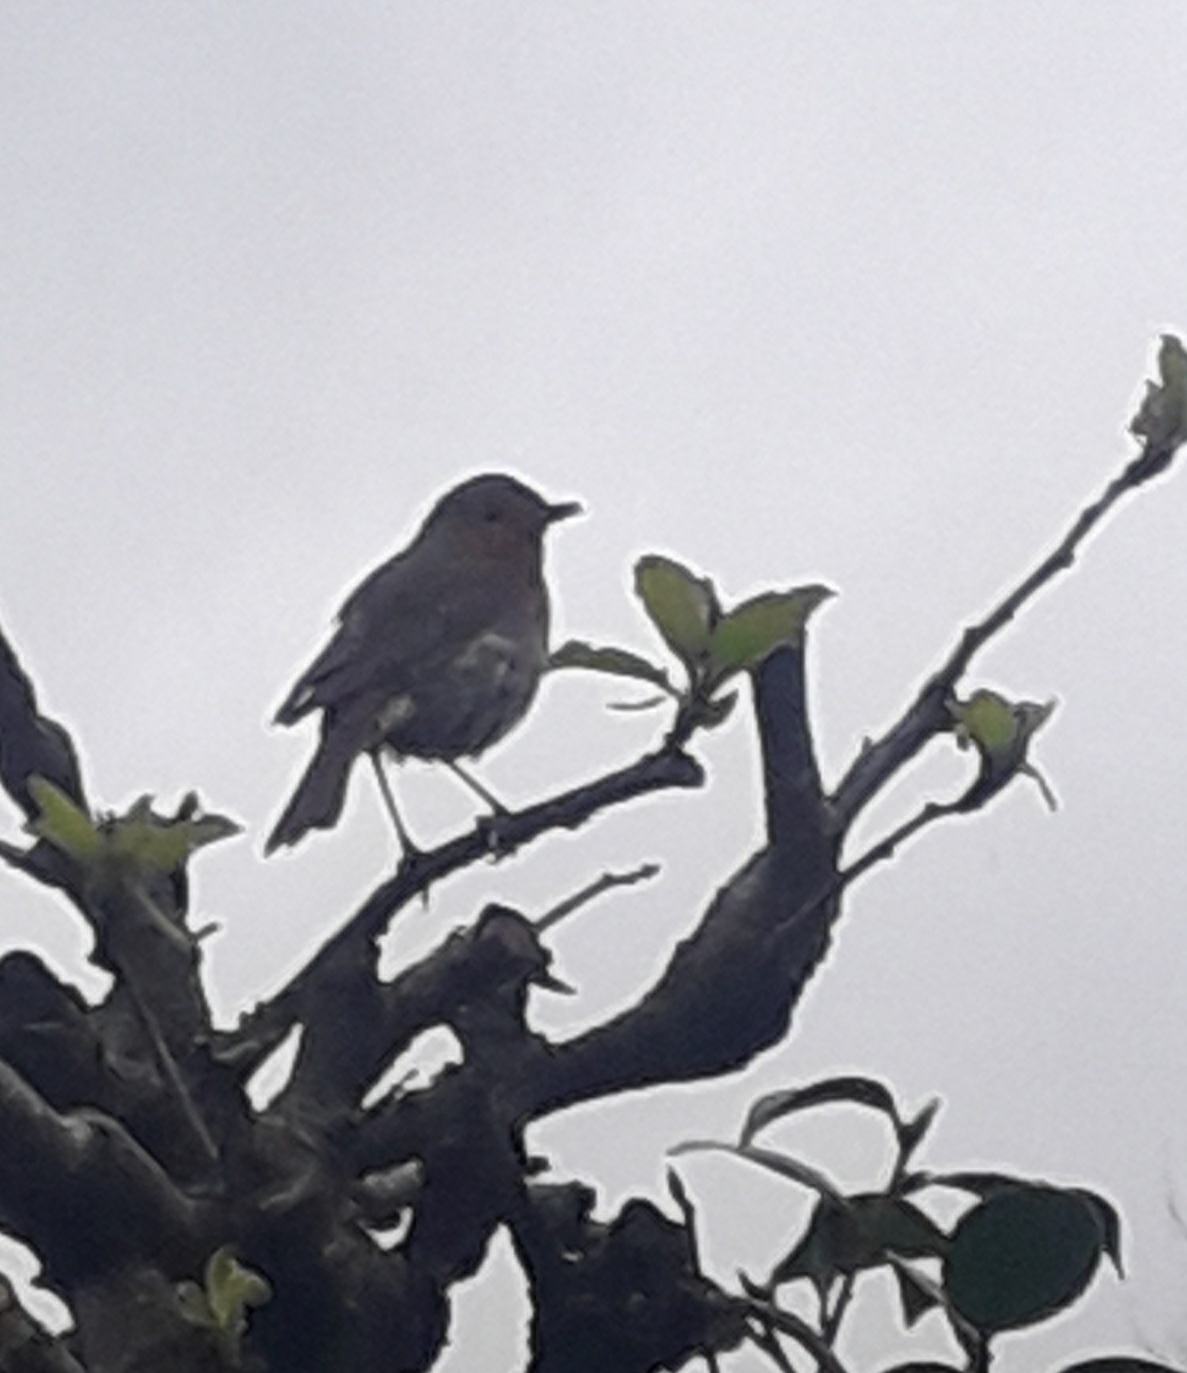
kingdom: Animalia
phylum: Chordata
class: Aves
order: Passeriformes
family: Muscicapidae
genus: Erithacus
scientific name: Erithacus rubecula
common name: European robin
